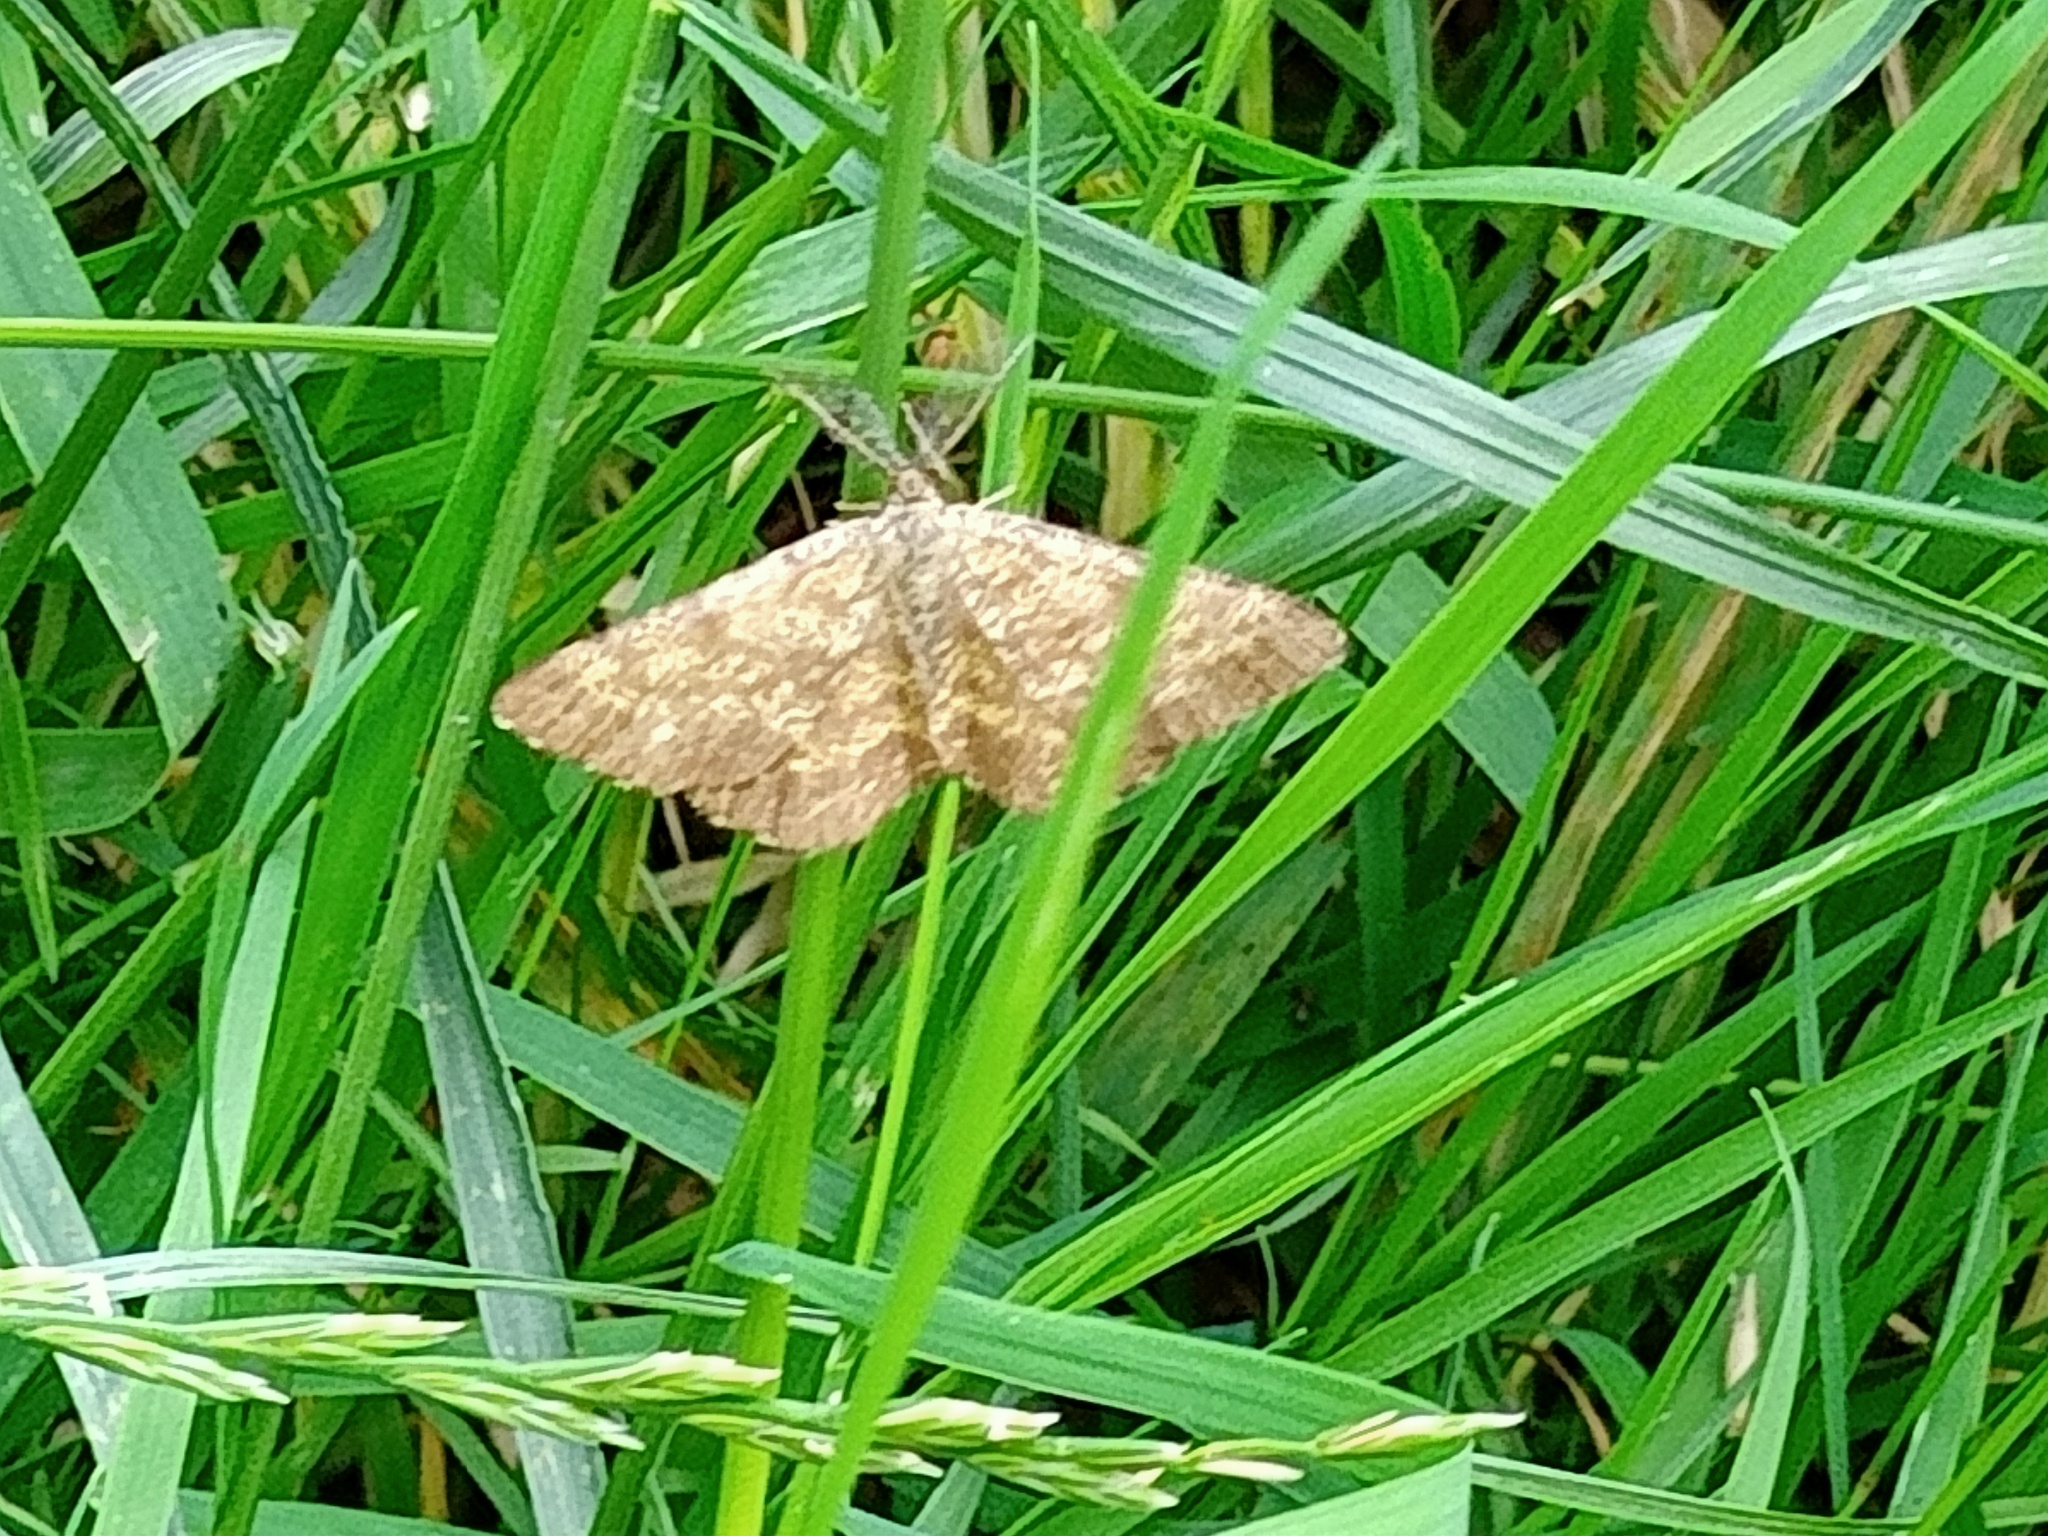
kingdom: Animalia
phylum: Arthropoda
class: Insecta
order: Lepidoptera
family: Geometridae
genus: Ematurga
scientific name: Ematurga atomaria
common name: Common heath
